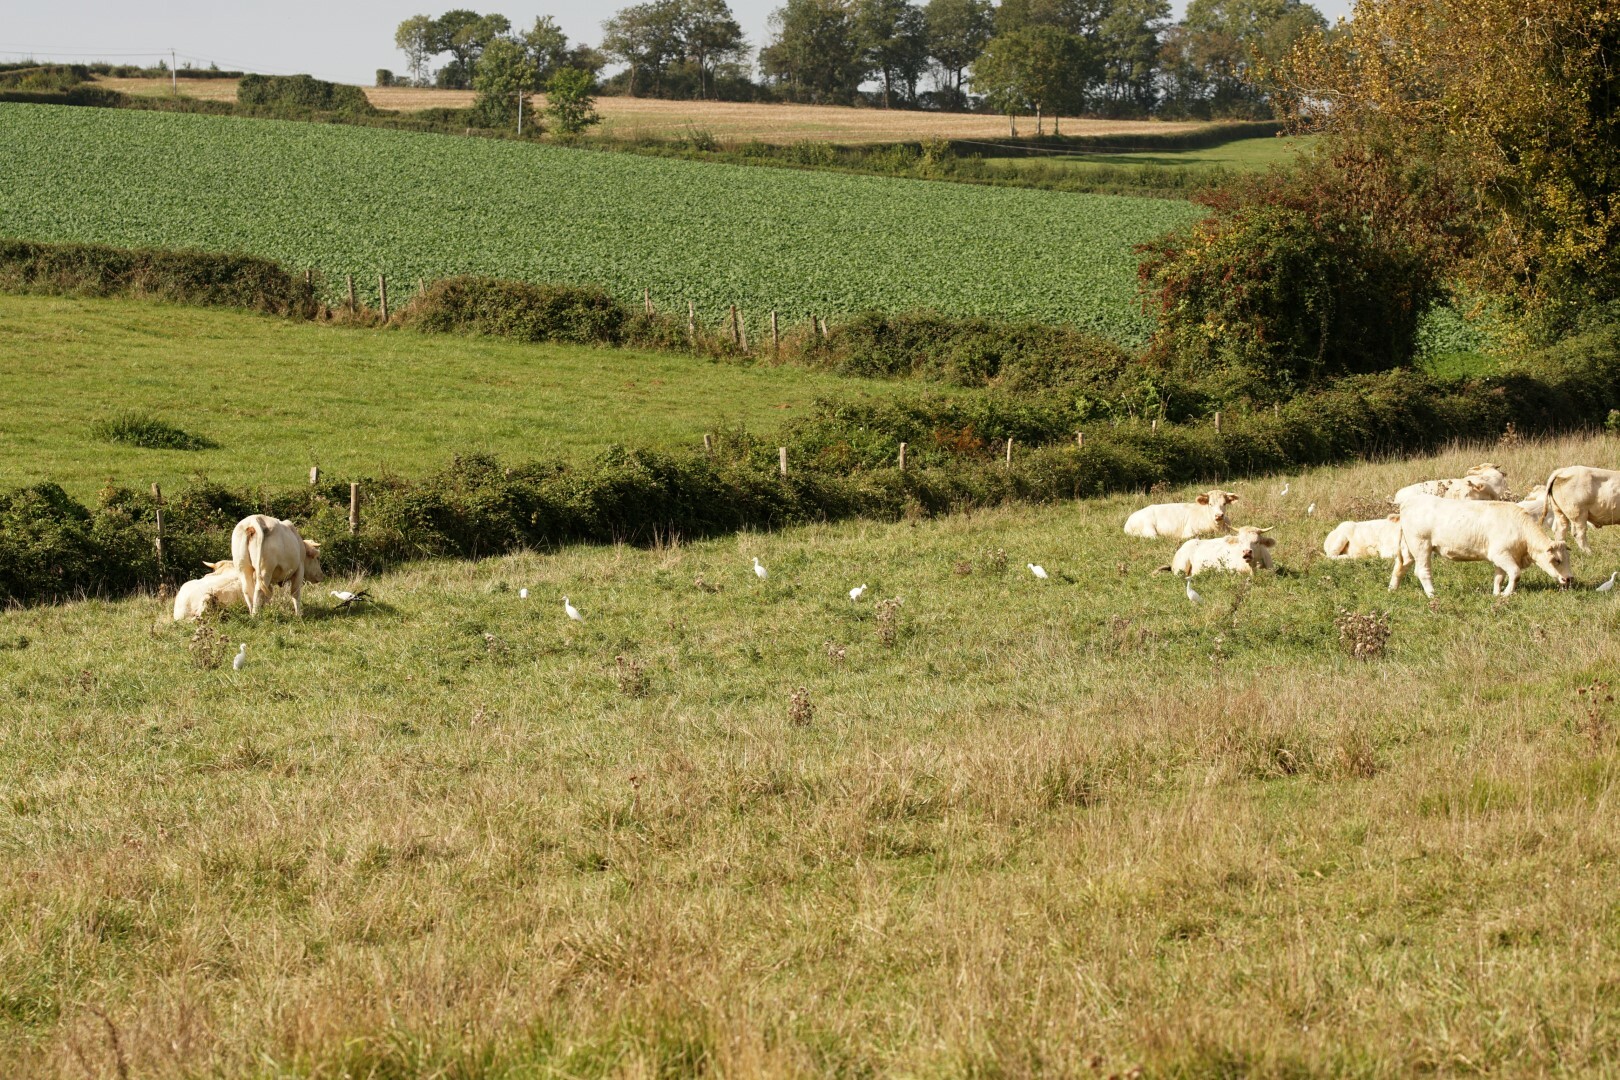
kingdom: Animalia
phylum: Chordata
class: Aves
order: Pelecaniformes
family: Ardeidae
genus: Bubulcus
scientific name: Bubulcus ibis
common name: Cattle egret
